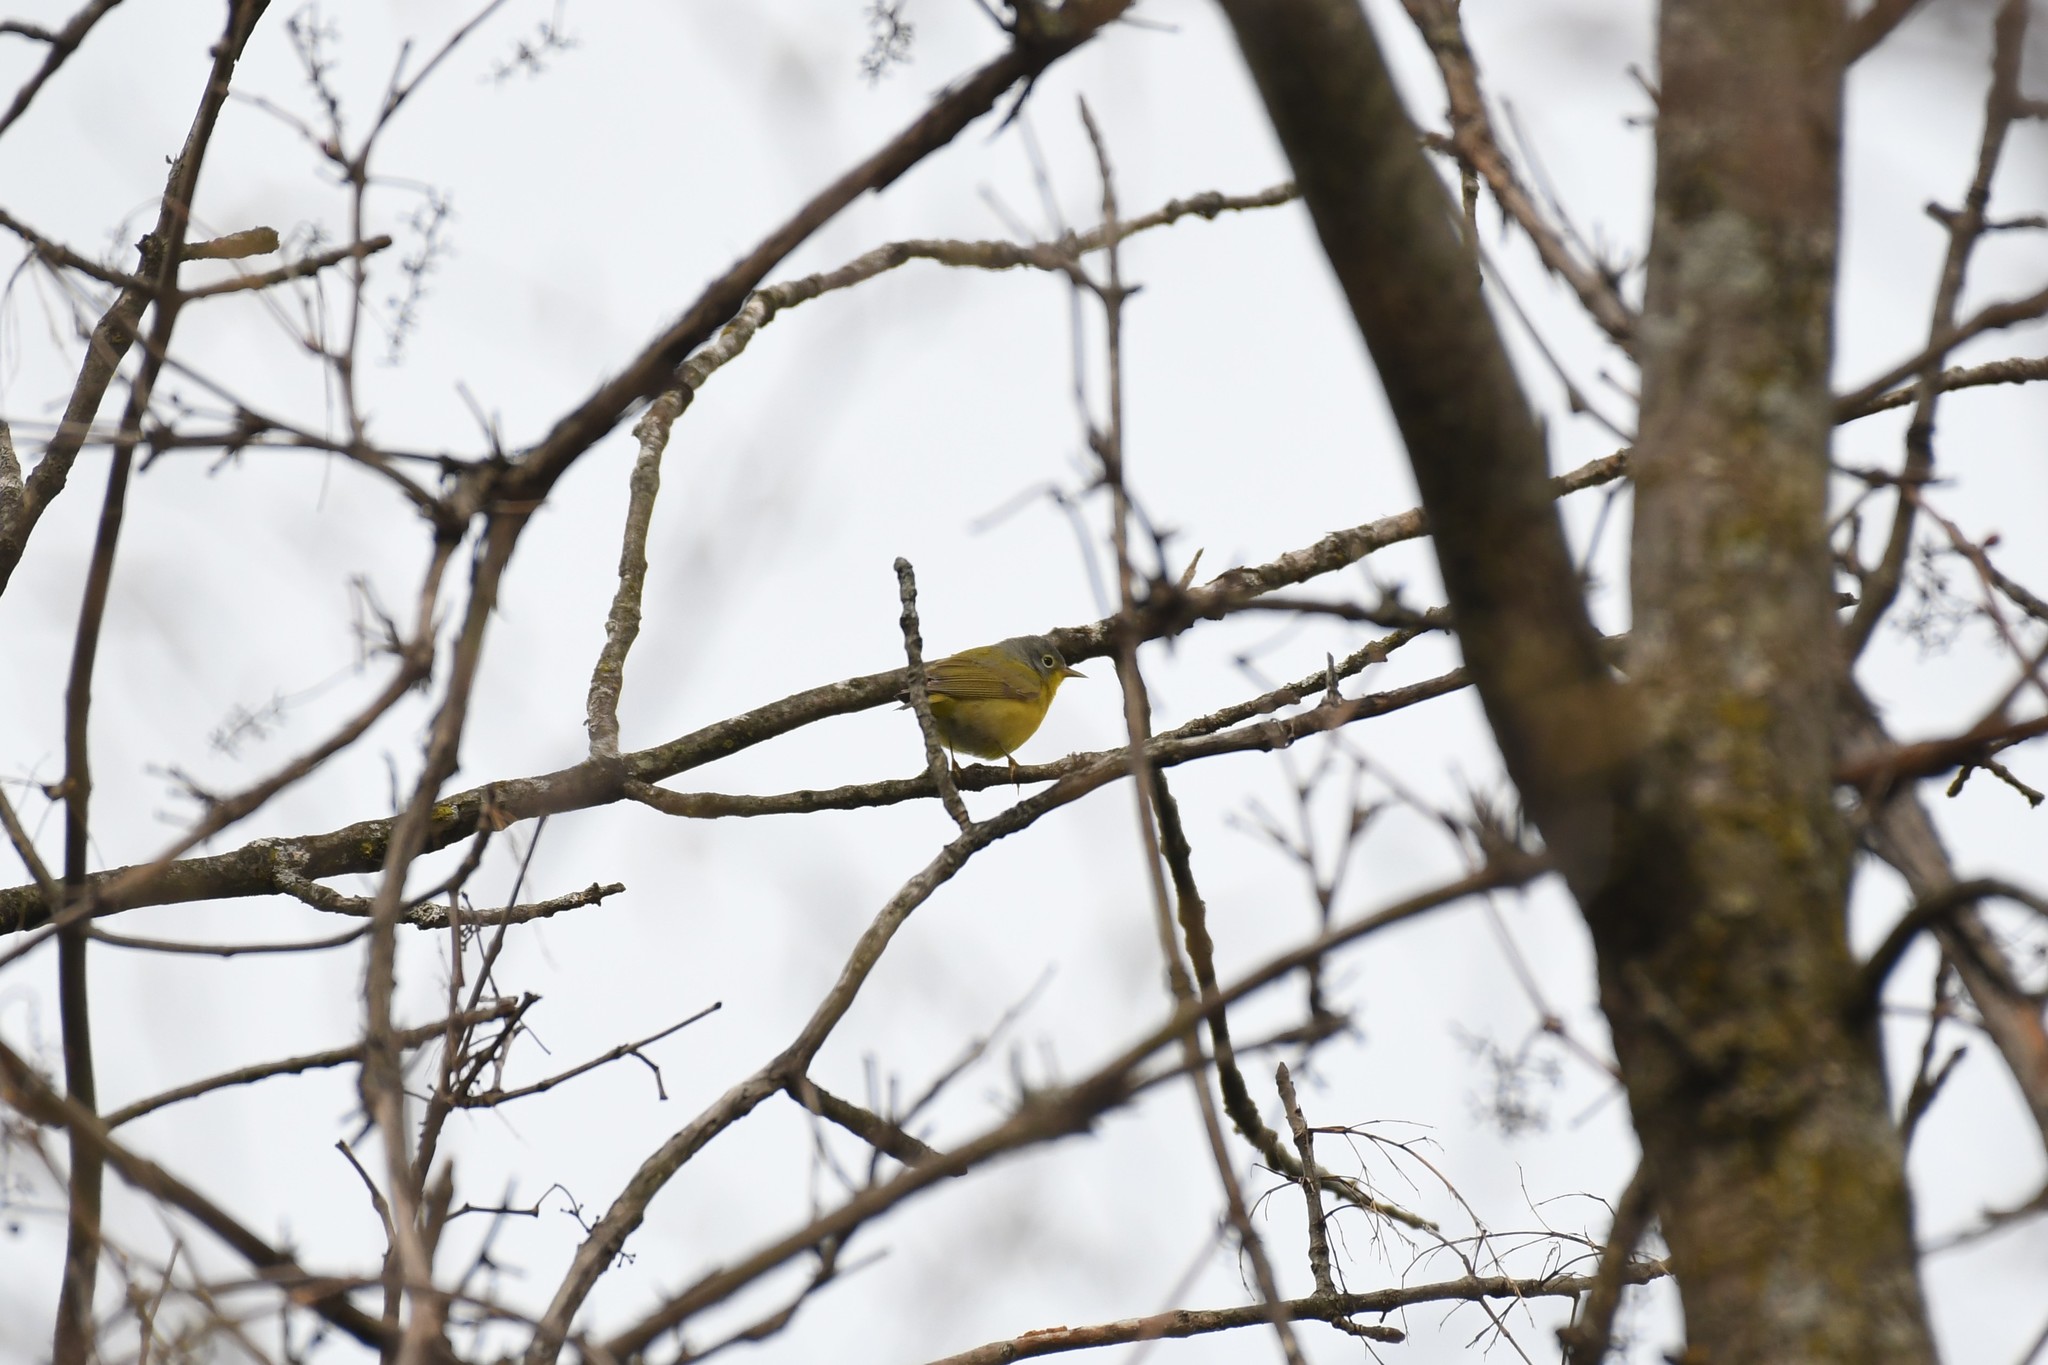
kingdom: Animalia
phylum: Chordata
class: Aves
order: Passeriformes
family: Parulidae
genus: Leiothlypis
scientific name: Leiothlypis ruficapilla
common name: Nashville warbler
